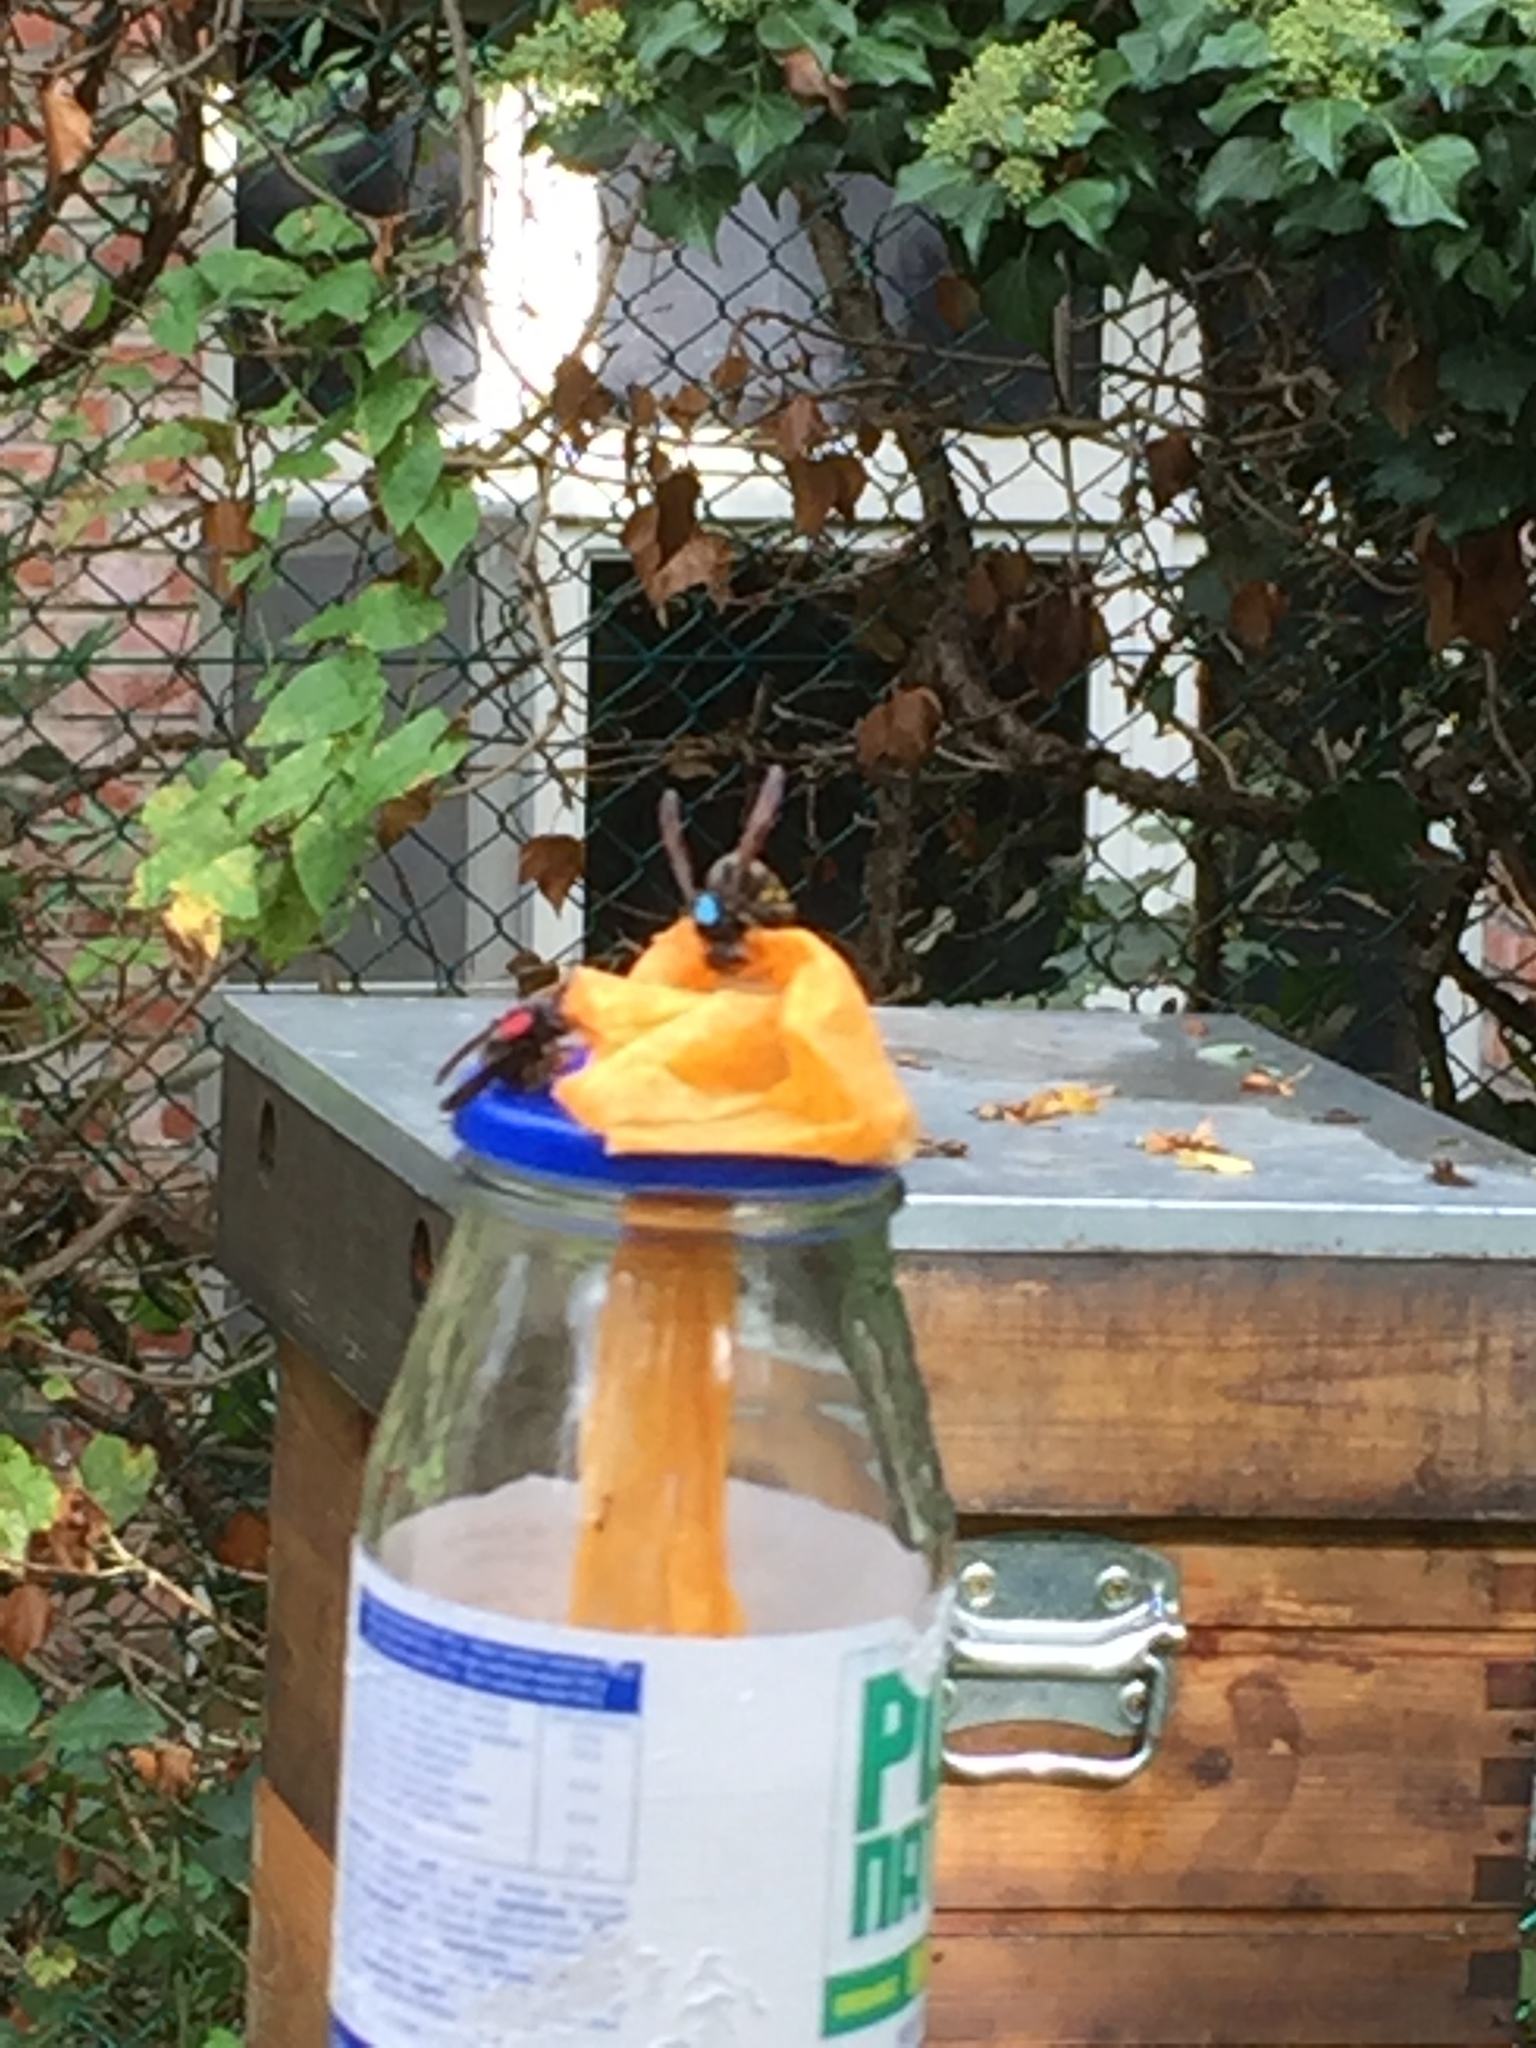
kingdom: Animalia
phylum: Arthropoda
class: Insecta
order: Hymenoptera
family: Vespidae
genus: Vespa
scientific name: Vespa velutina
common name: Asian hornet
